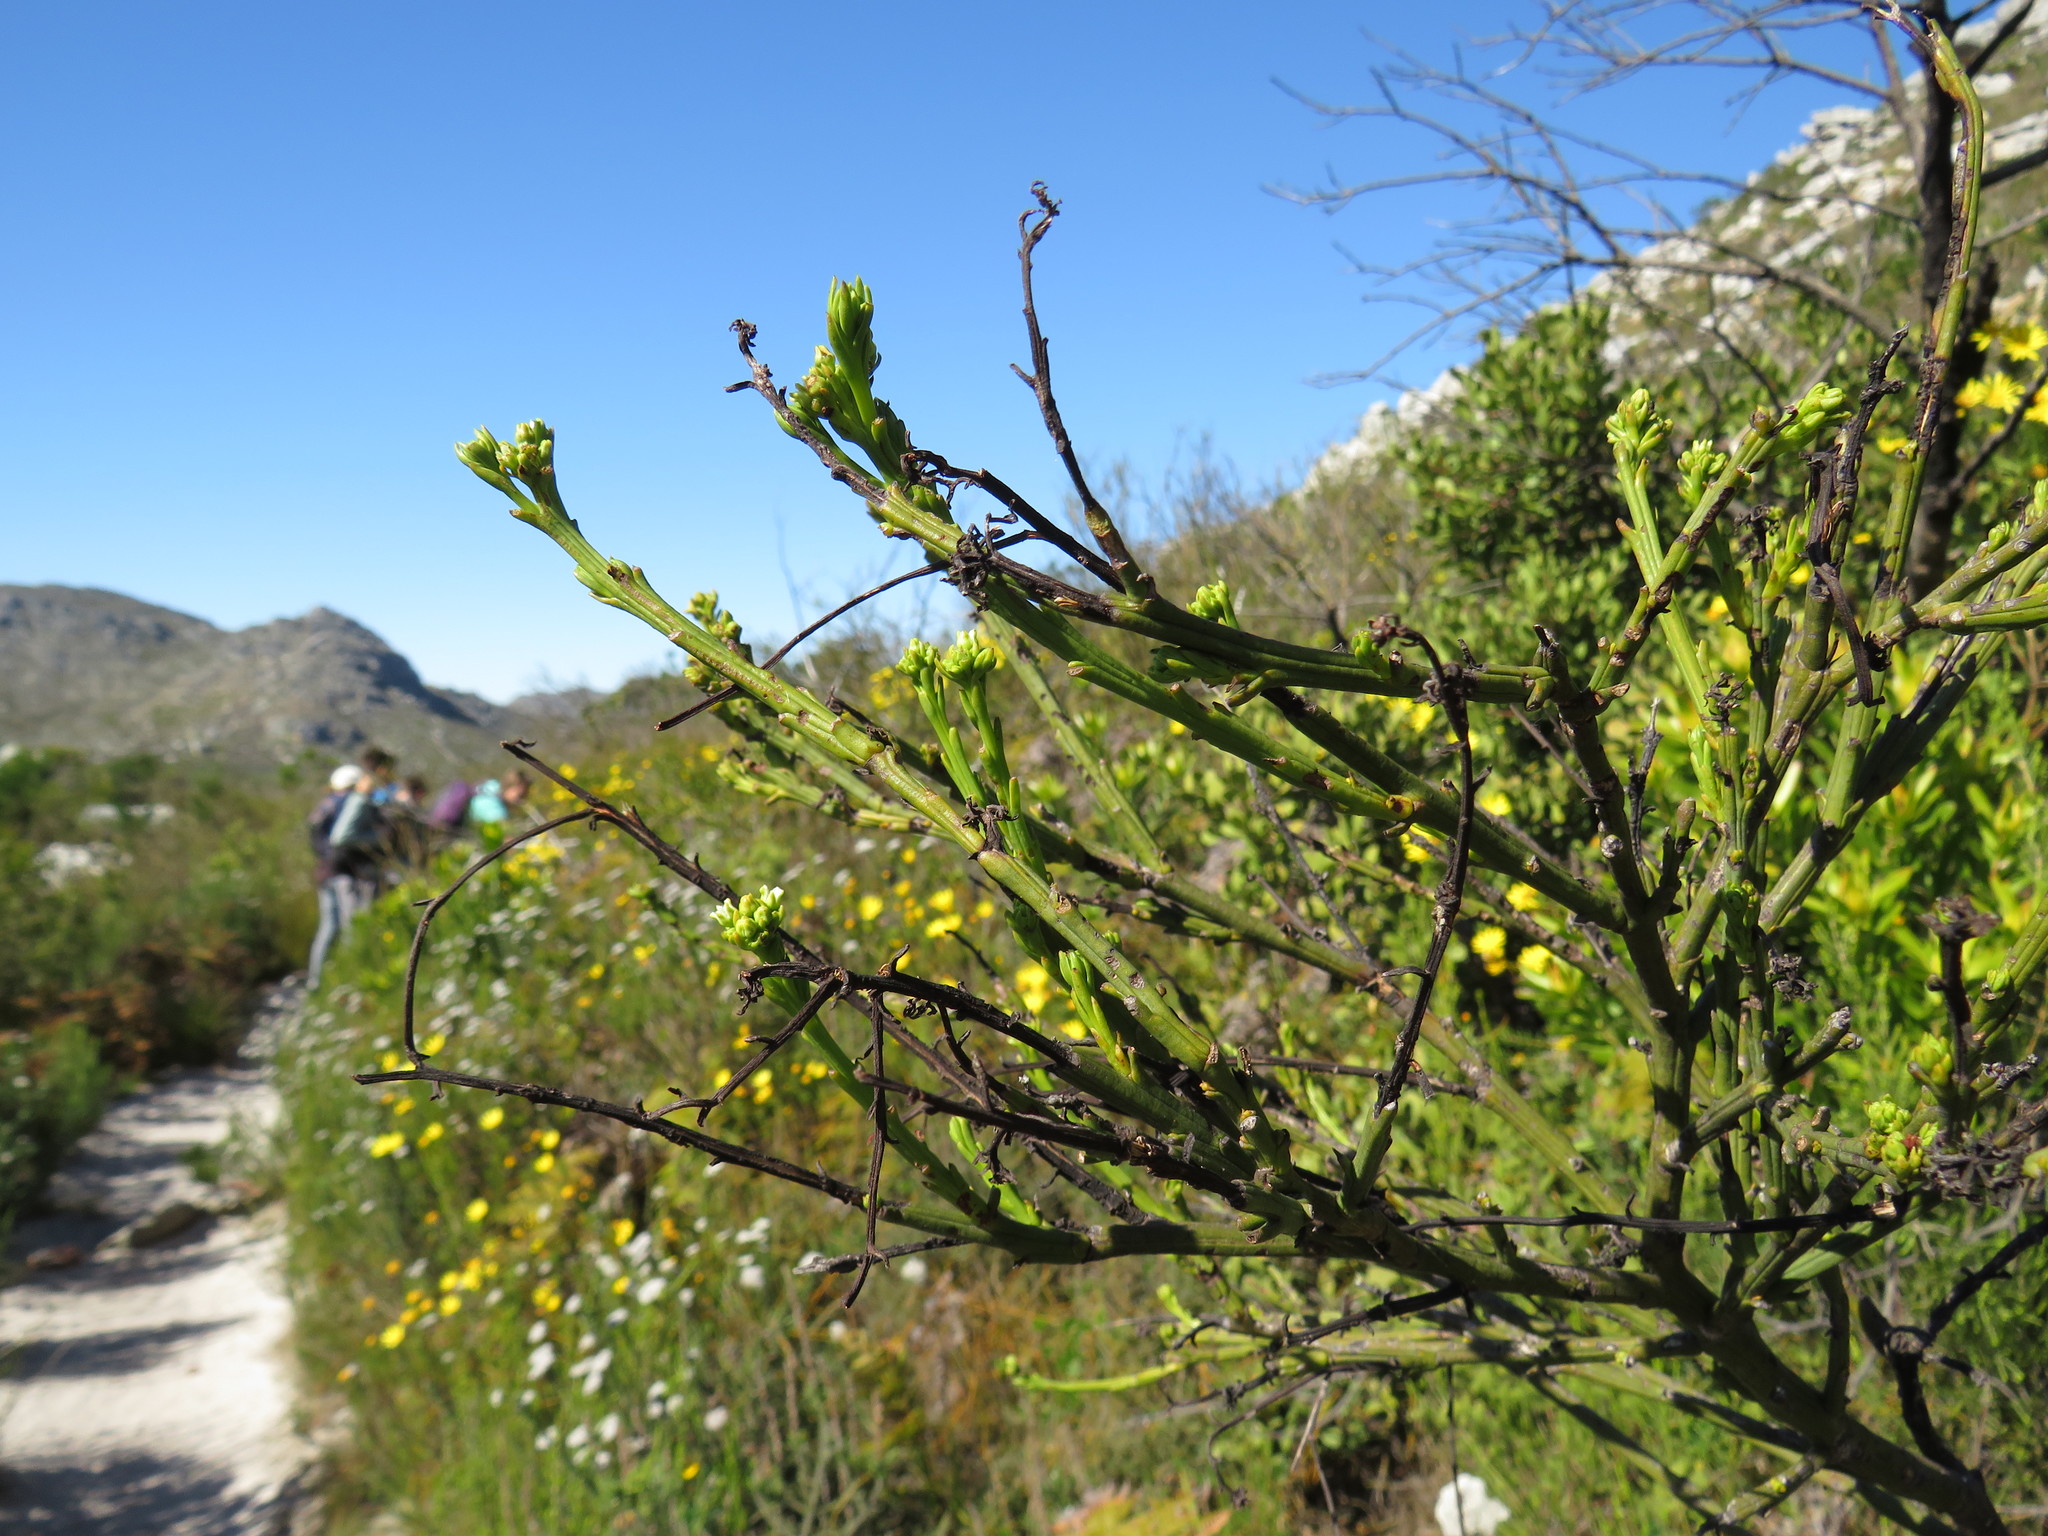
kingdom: Plantae
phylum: Tracheophyta
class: Magnoliopsida
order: Santalales
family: Thesiaceae
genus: Thesium
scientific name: Thesium strictum
